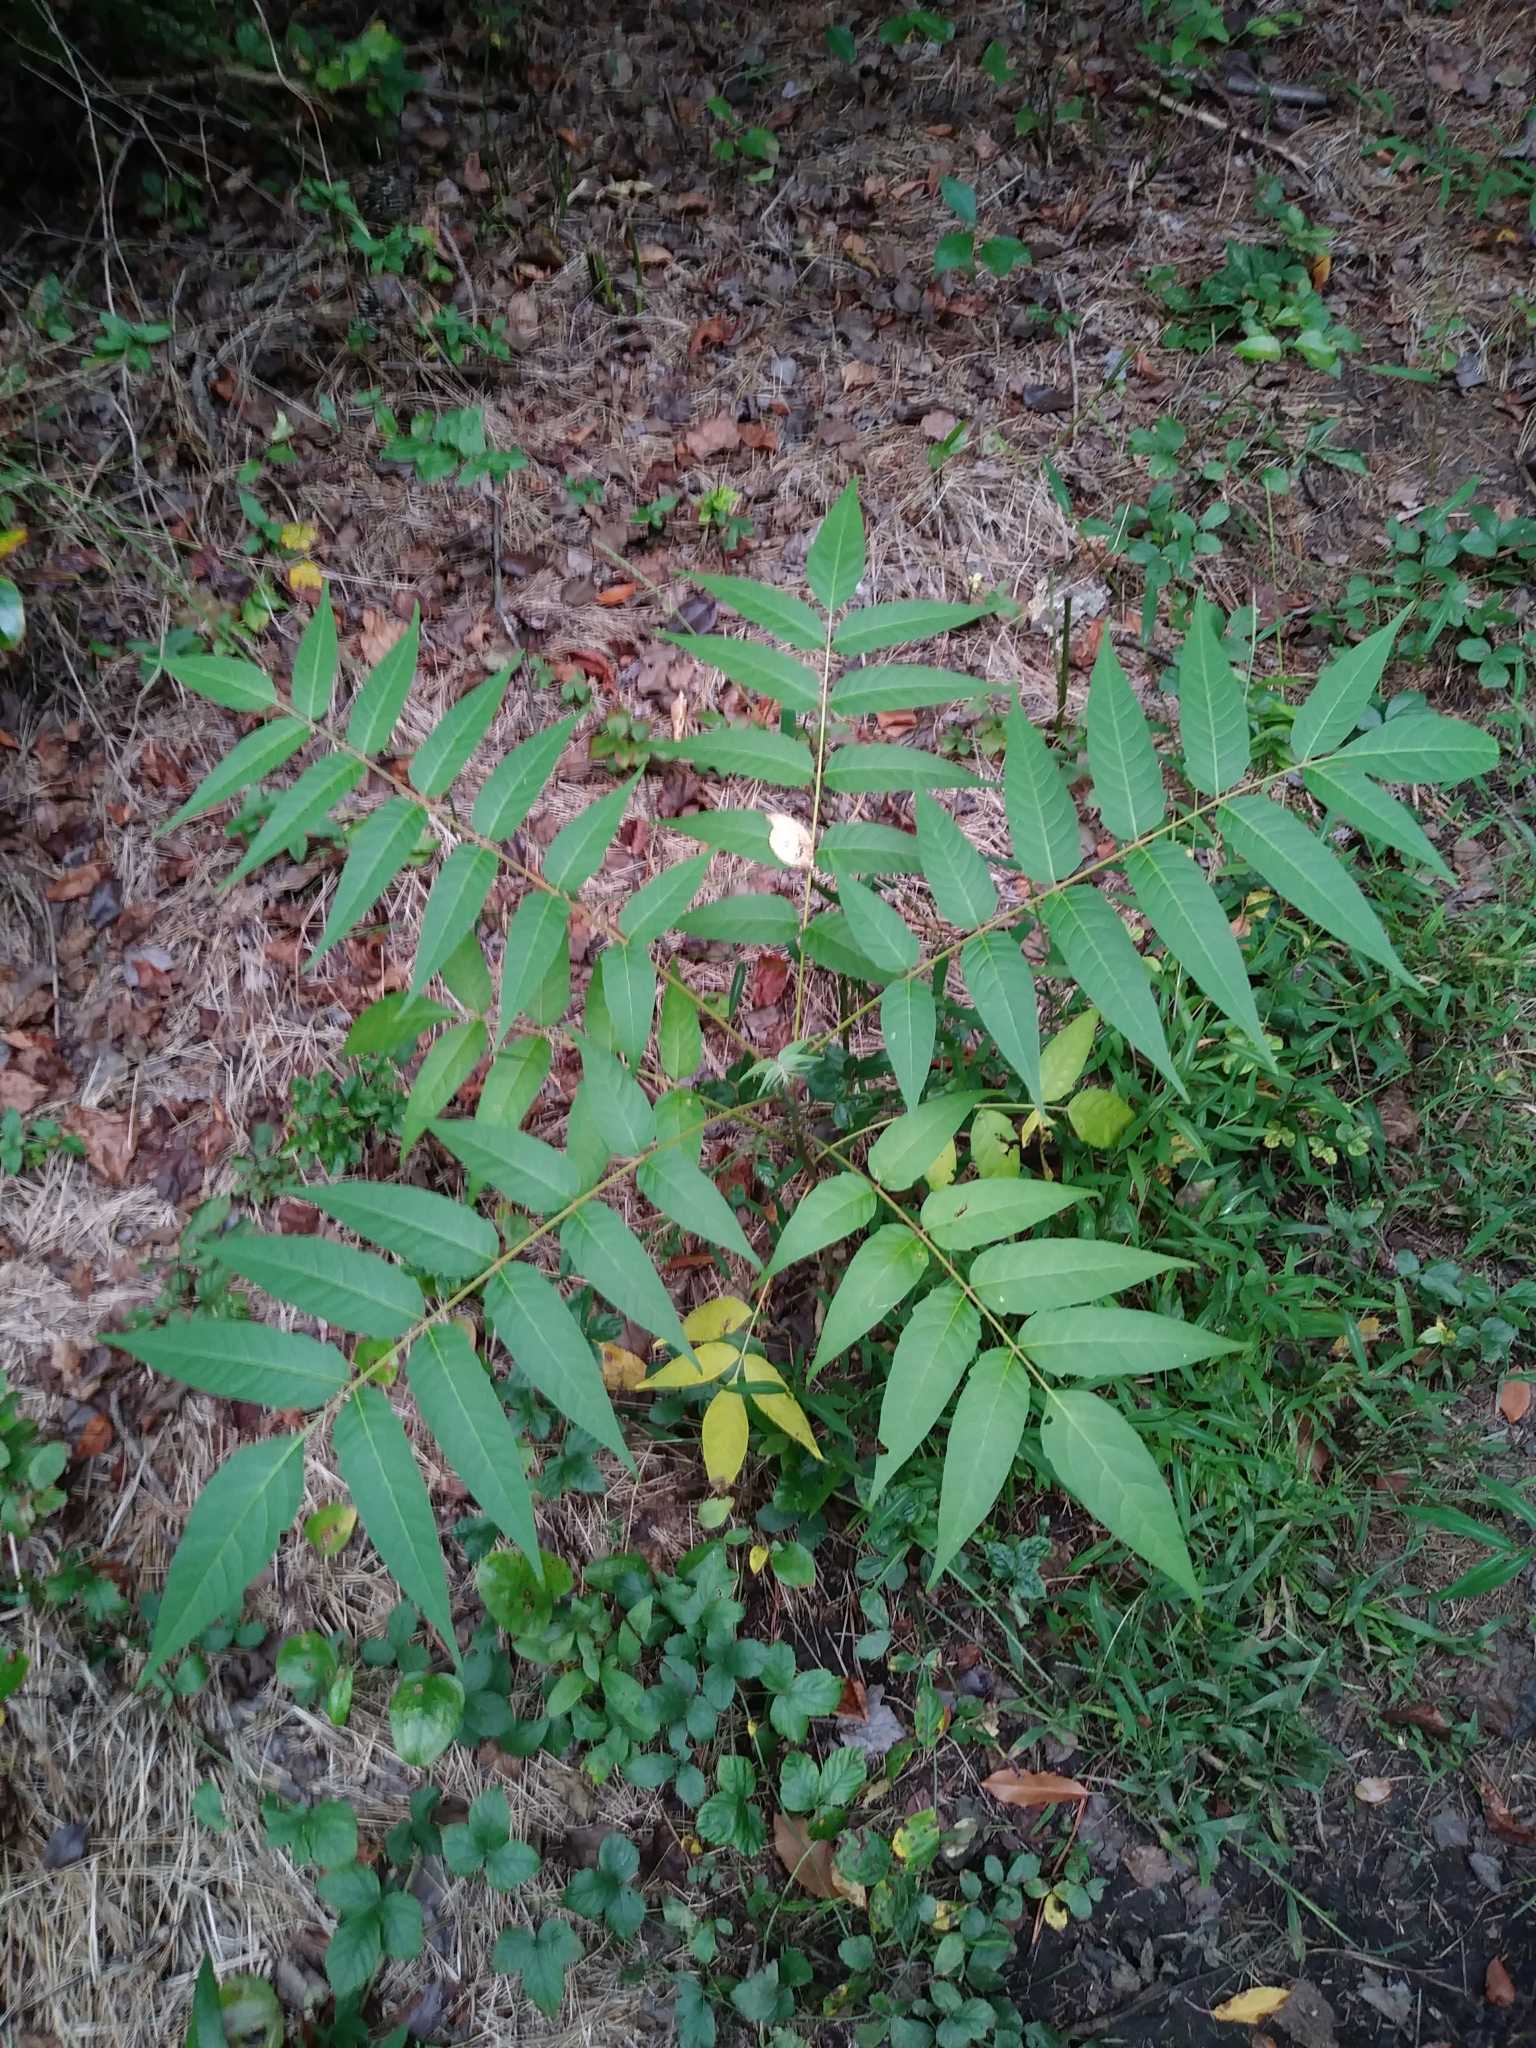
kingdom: Plantae
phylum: Tracheophyta
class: Magnoliopsida
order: Sapindales
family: Simaroubaceae
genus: Ailanthus
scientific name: Ailanthus altissima
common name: Tree-of-heaven
